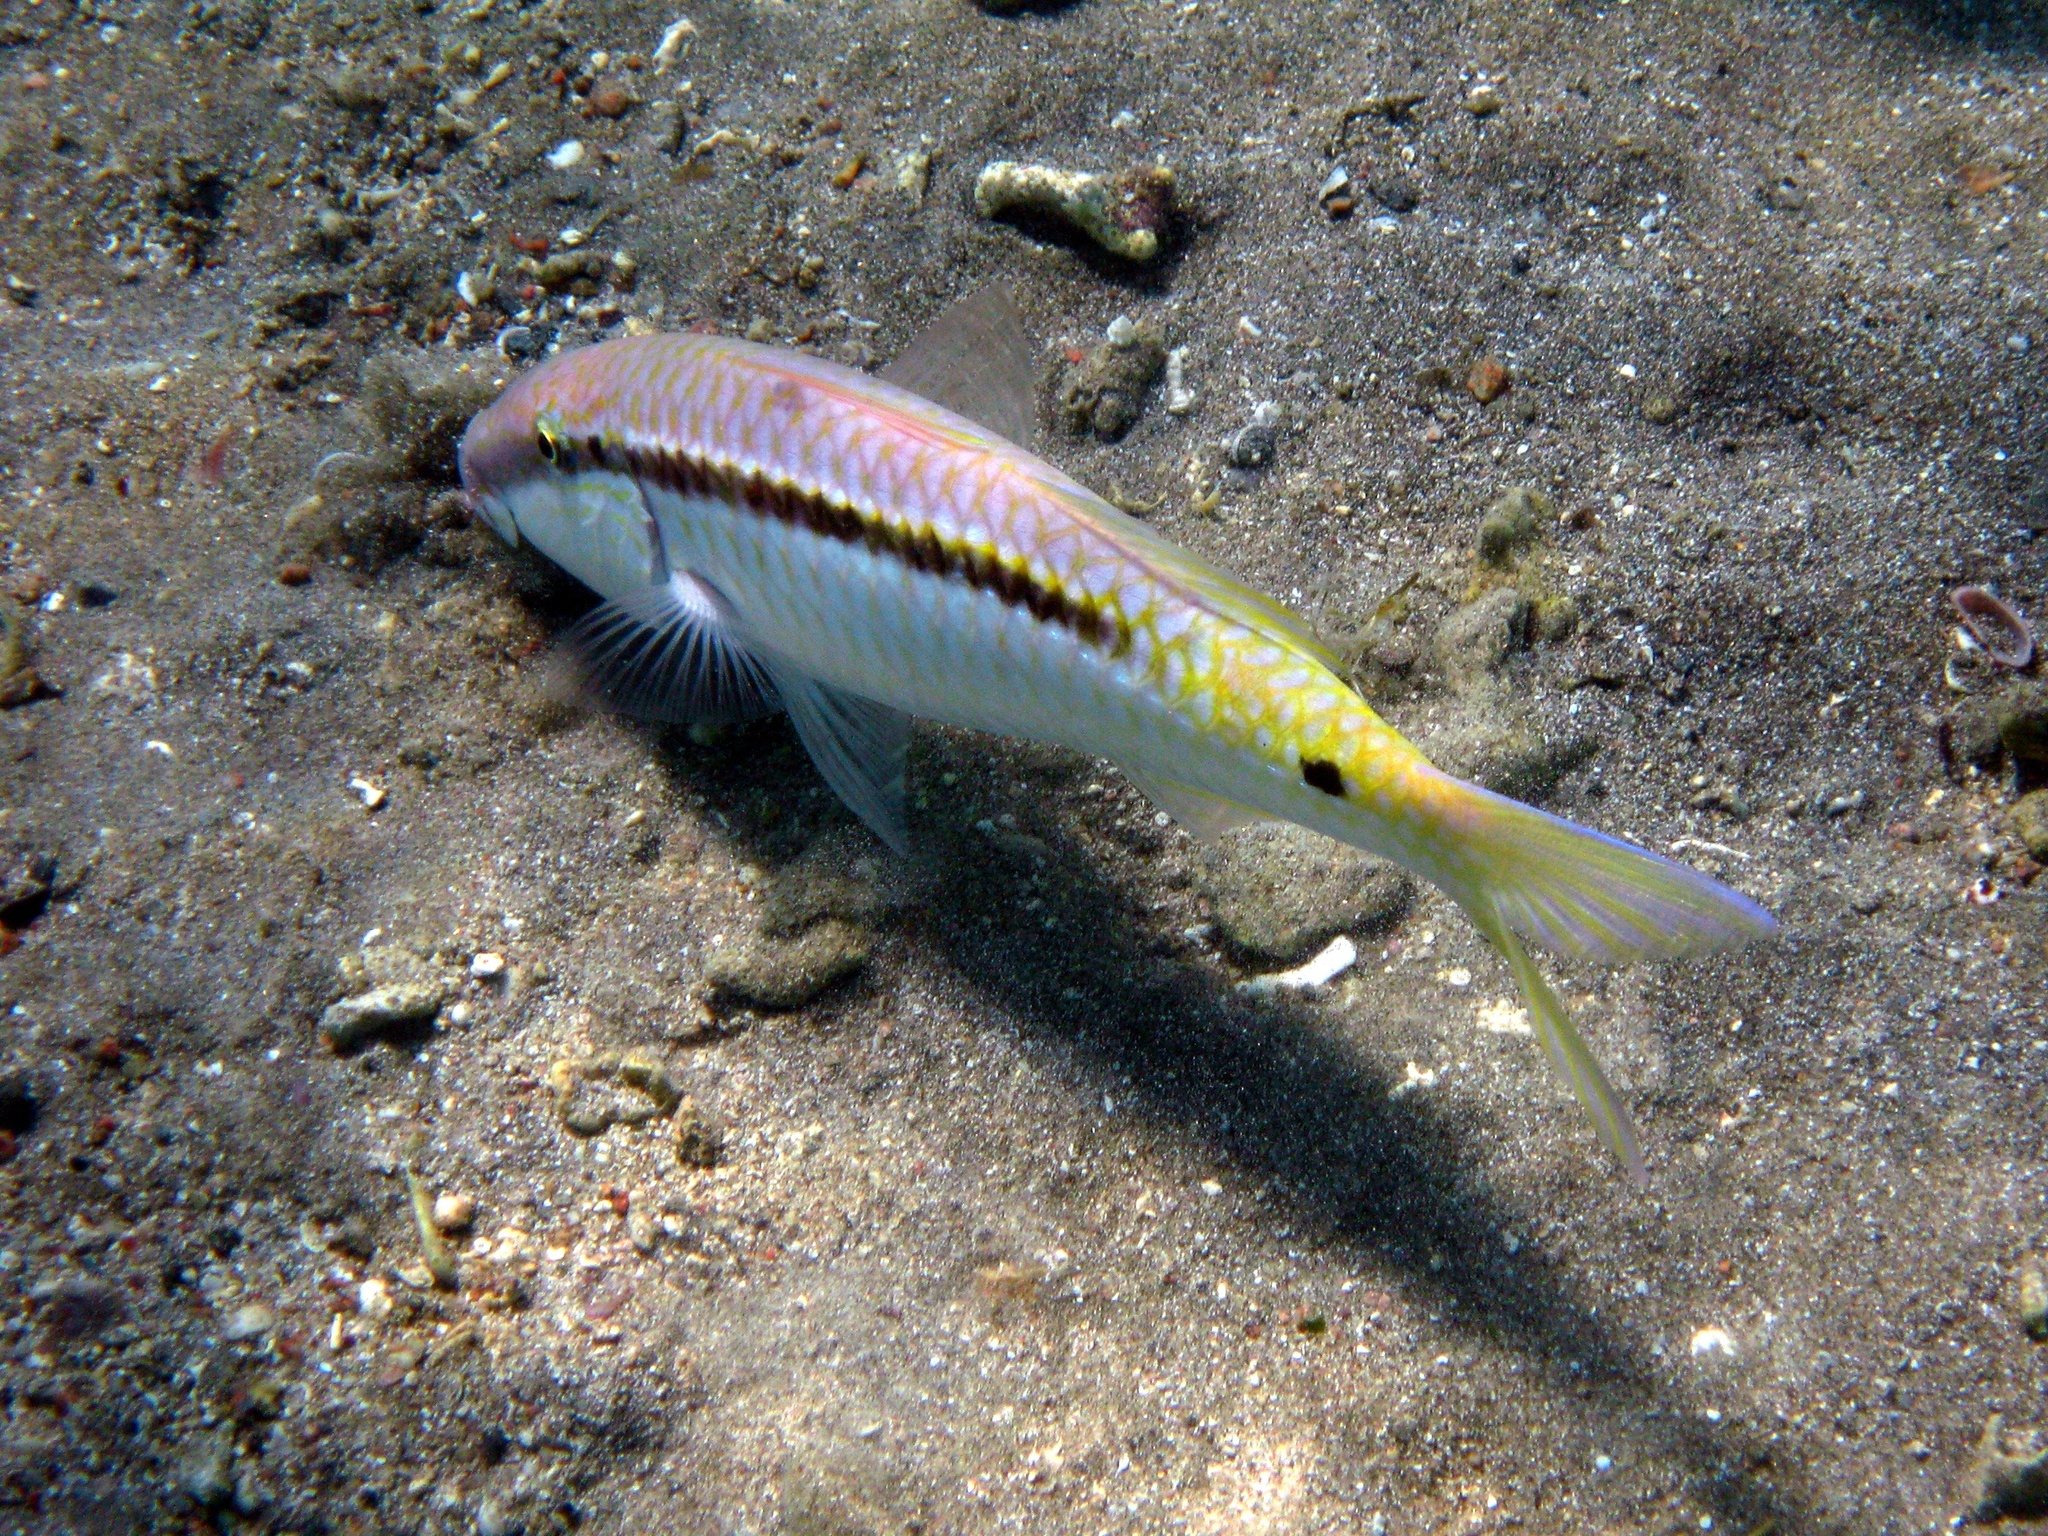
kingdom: Animalia
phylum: Chordata
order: Perciformes
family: Mullidae
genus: Parupeneus
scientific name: Parupeneus forsskali
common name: Red sea goatfish
